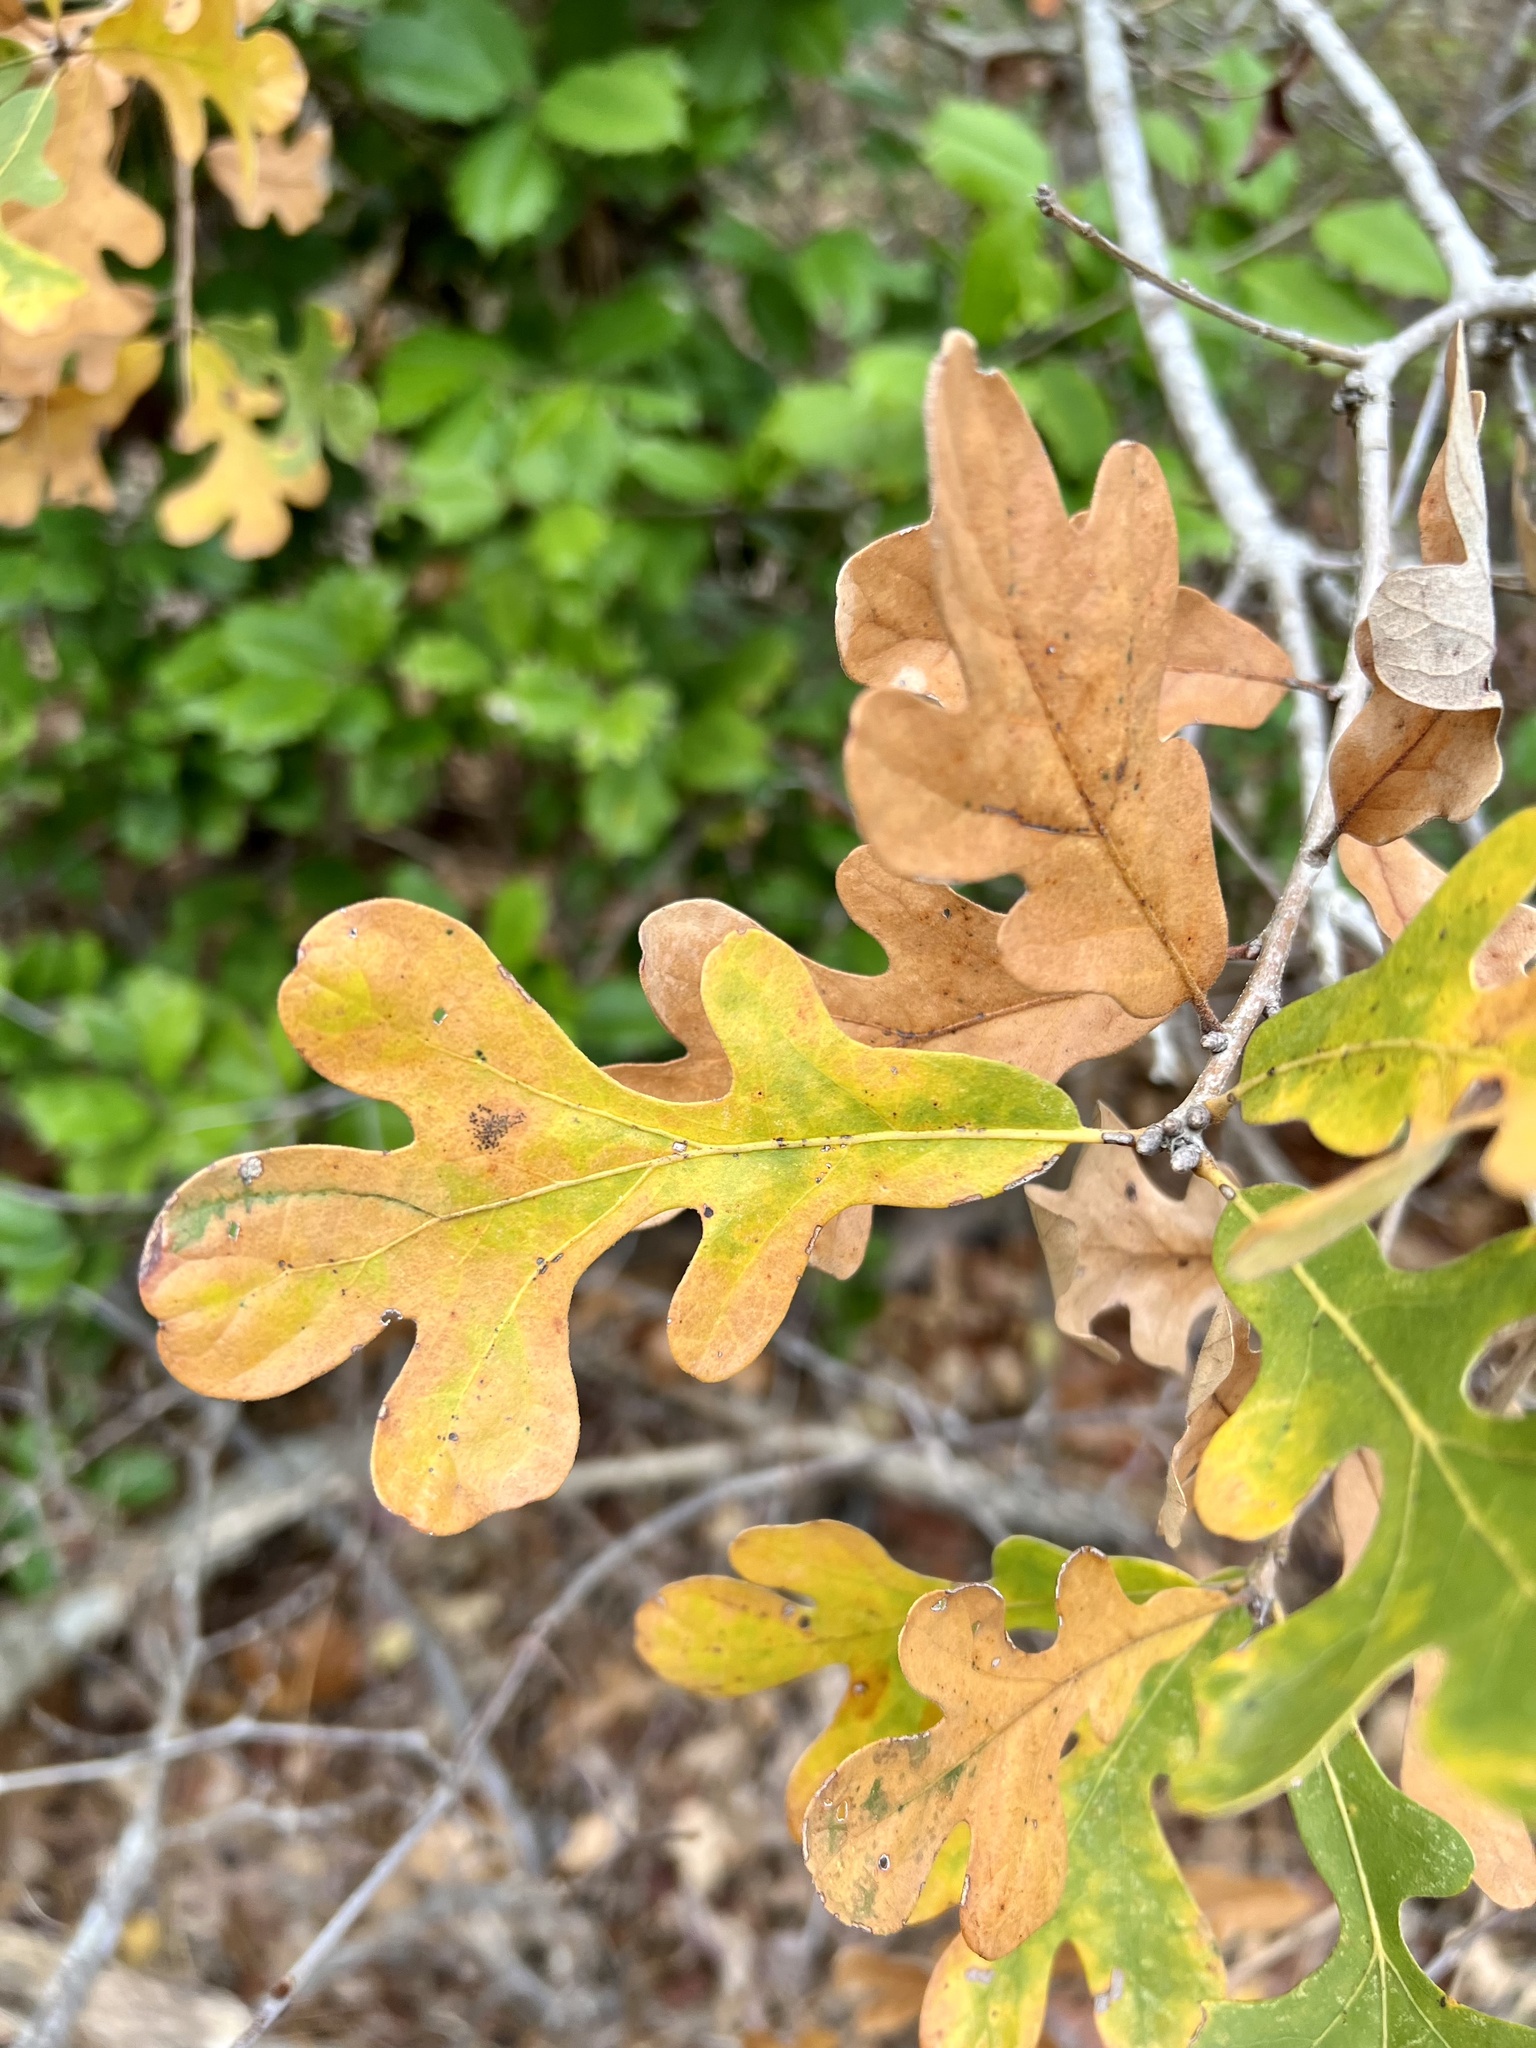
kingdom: Plantae
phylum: Tracheophyta
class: Magnoliopsida
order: Fagales
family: Fagaceae
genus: Quercus
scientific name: Quercus margaretiae
